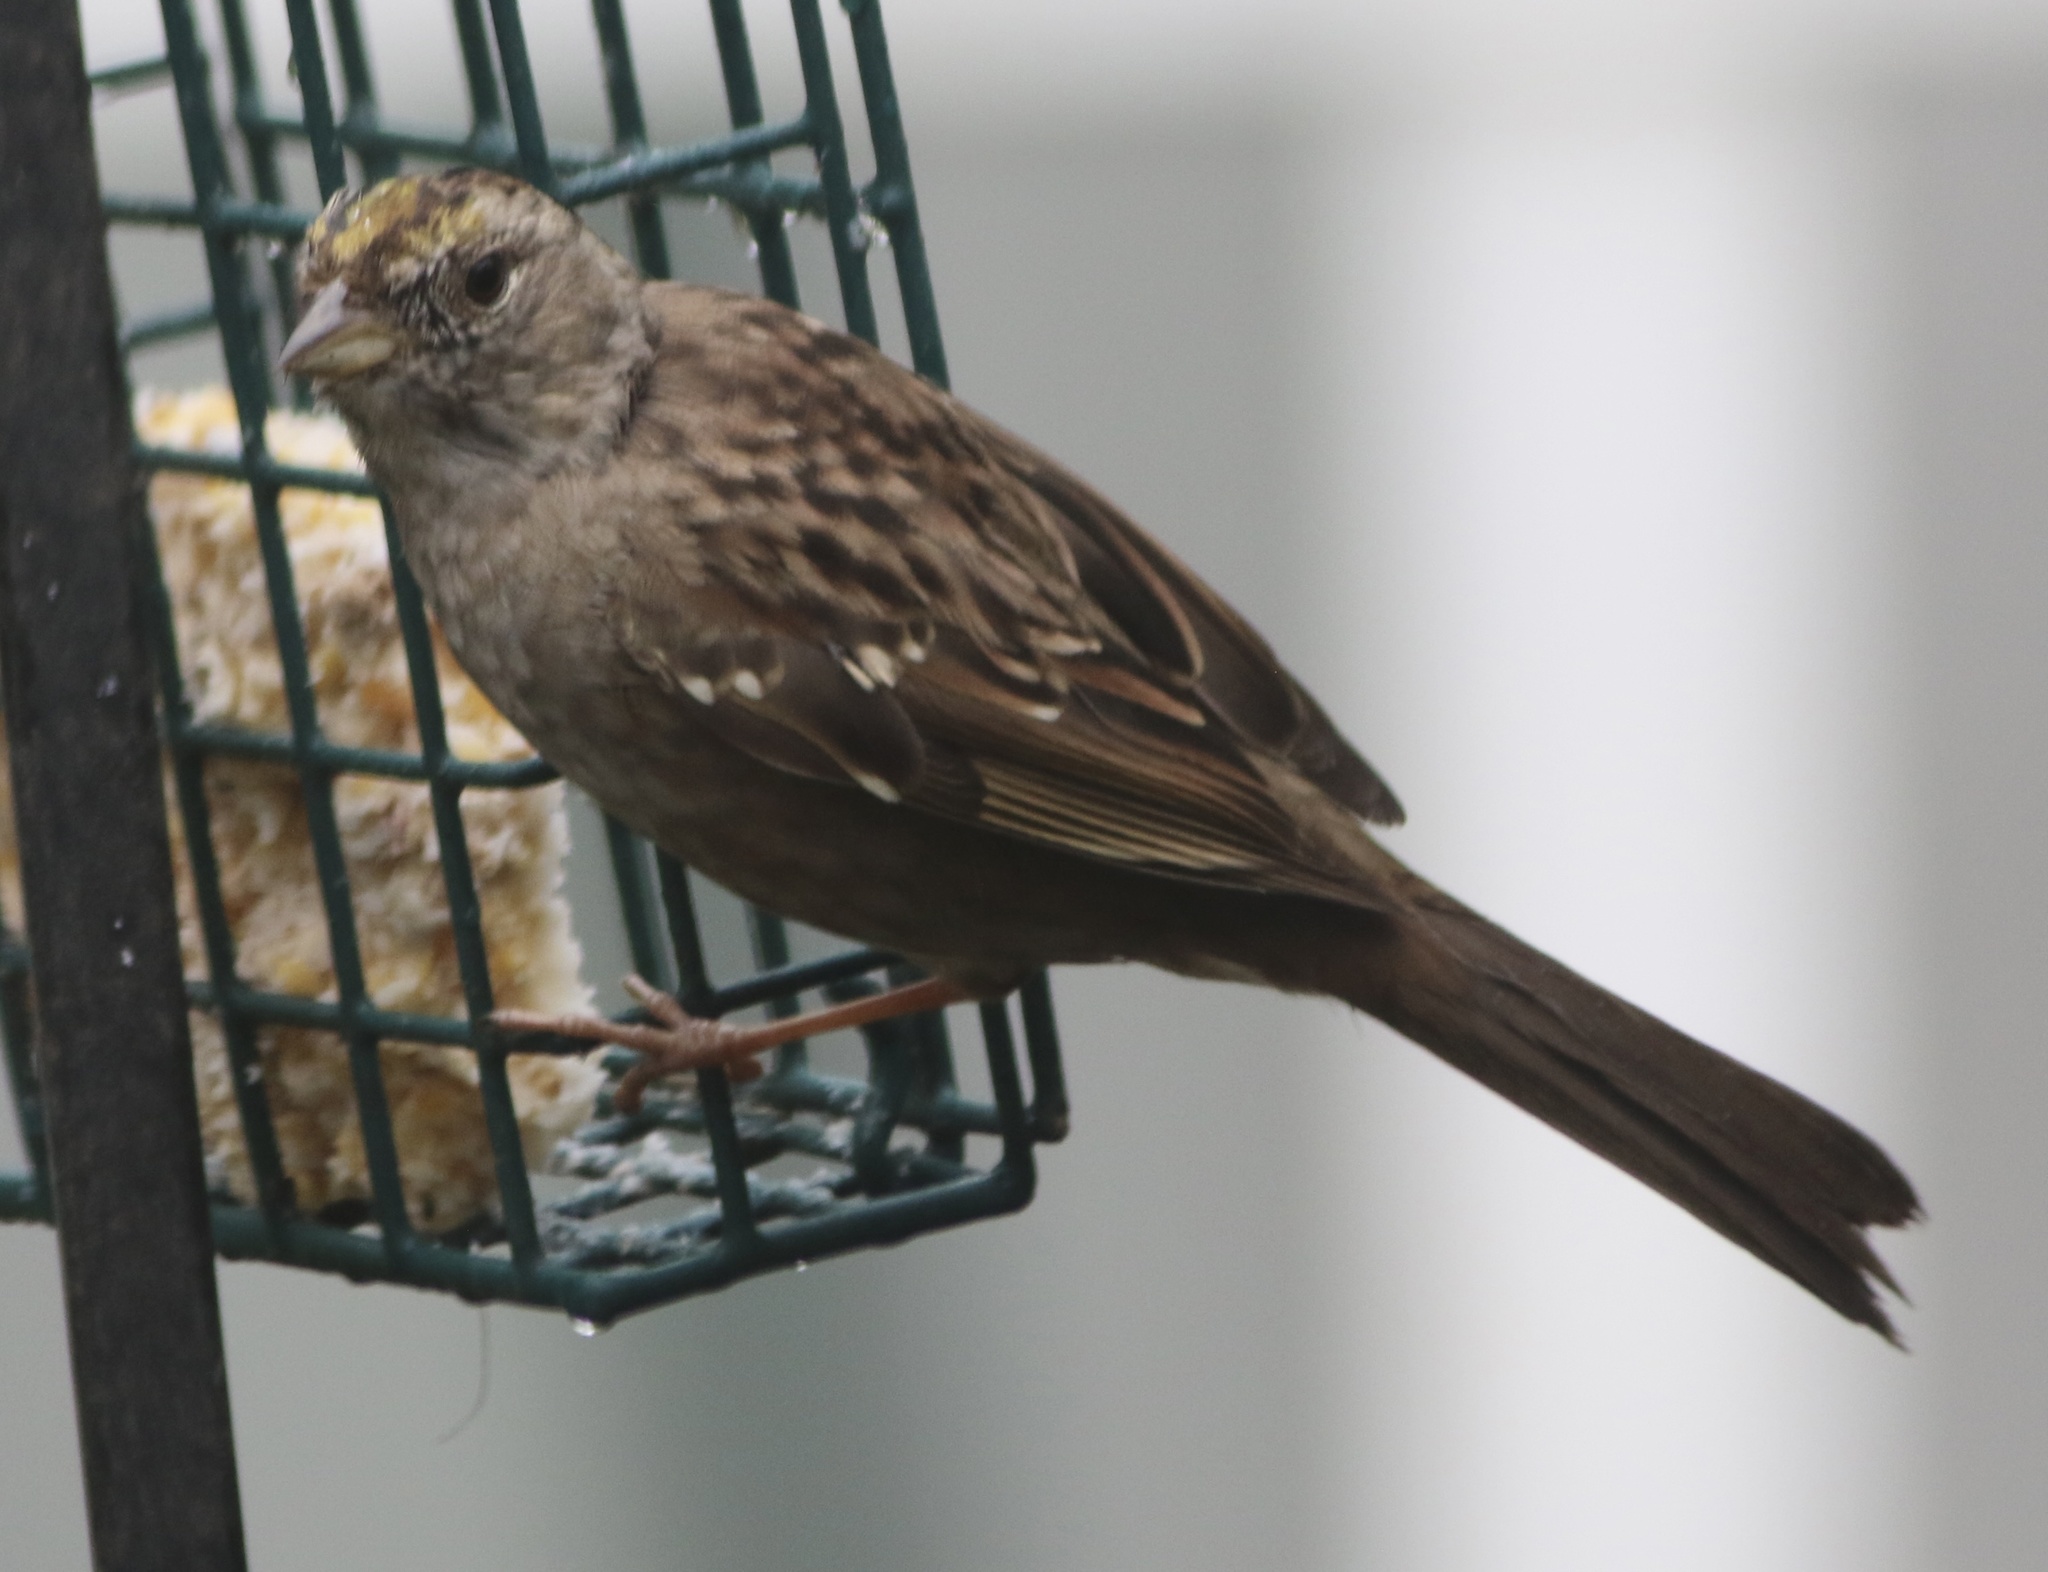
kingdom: Animalia
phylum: Chordata
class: Aves
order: Passeriformes
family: Passerellidae
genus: Zonotrichia
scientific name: Zonotrichia atricapilla
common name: Golden-crowned sparrow
